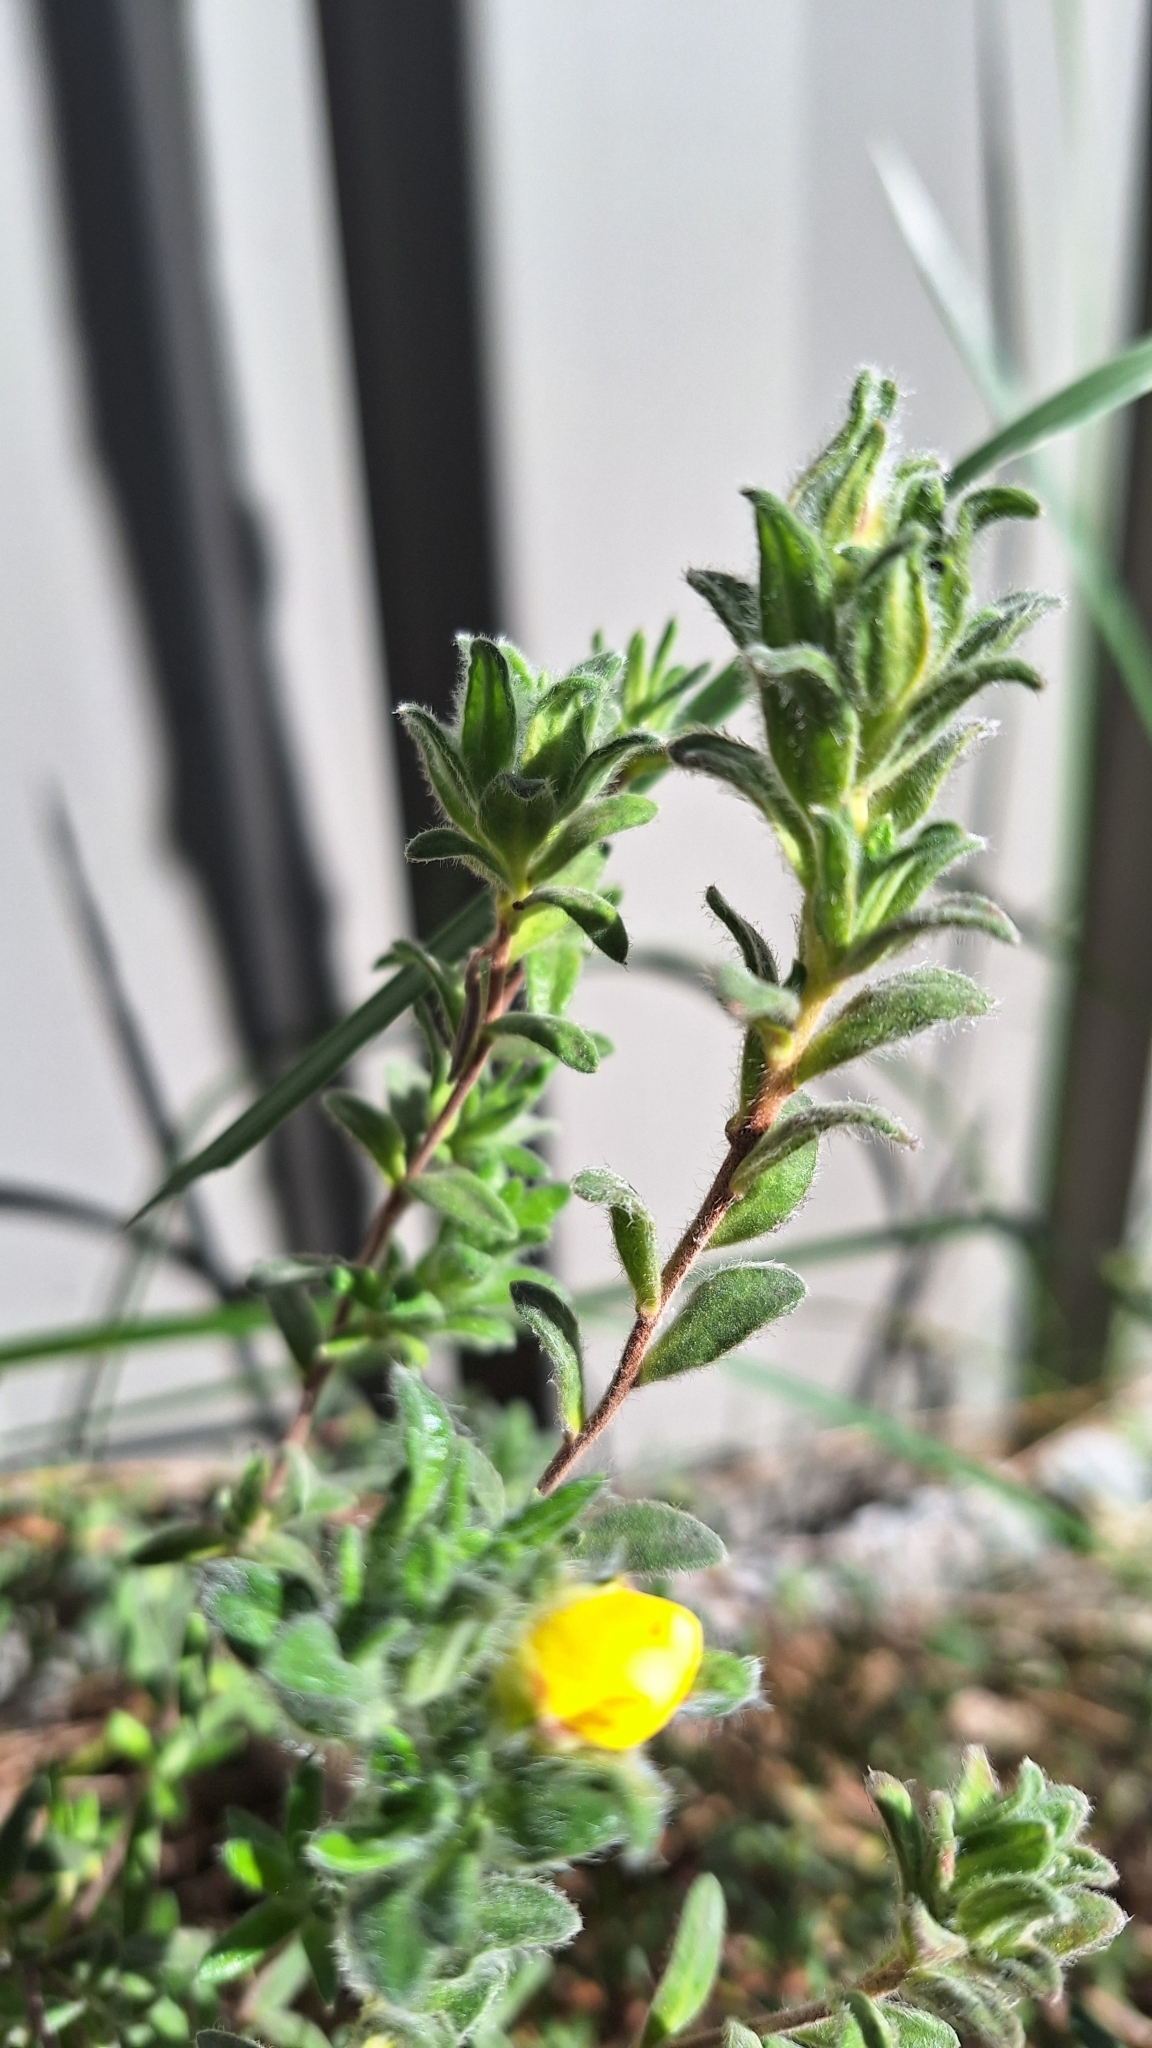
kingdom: Plantae
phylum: Tracheophyta
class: Magnoliopsida
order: Dilleniales
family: Dilleniaceae
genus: Hibbertia
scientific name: Hibbertia crinita
